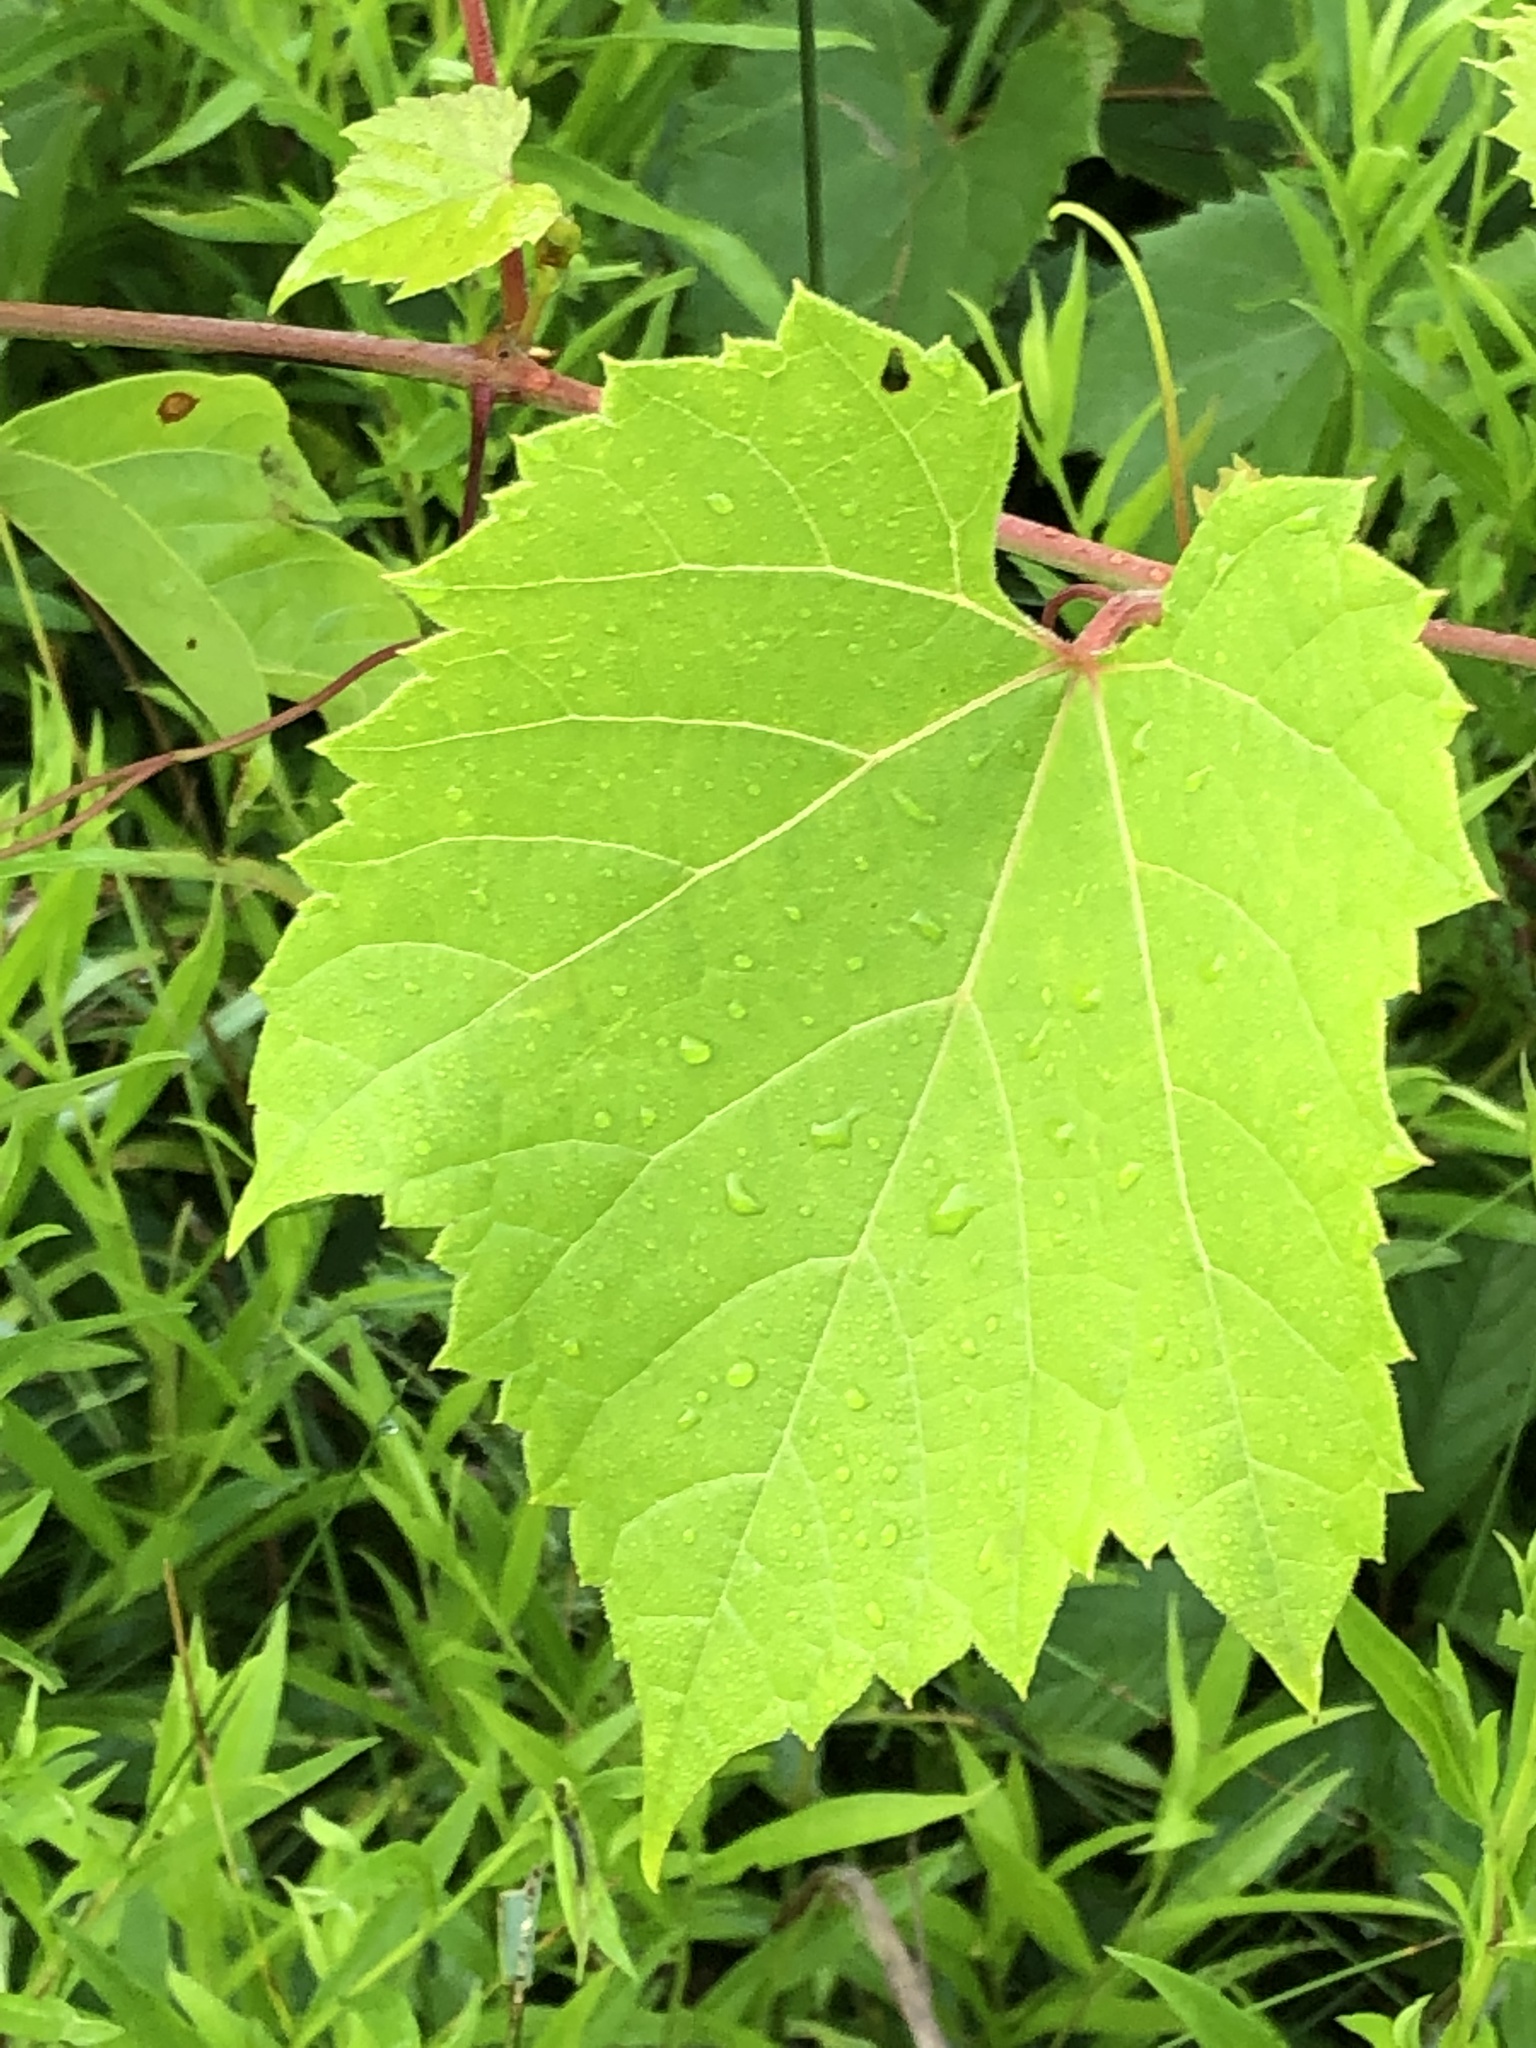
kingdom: Plantae
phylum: Tracheophyta
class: Magnoliopsida
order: Vitales
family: Vitaceae
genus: Vitis
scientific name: Vitis riparia
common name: Frost grape
